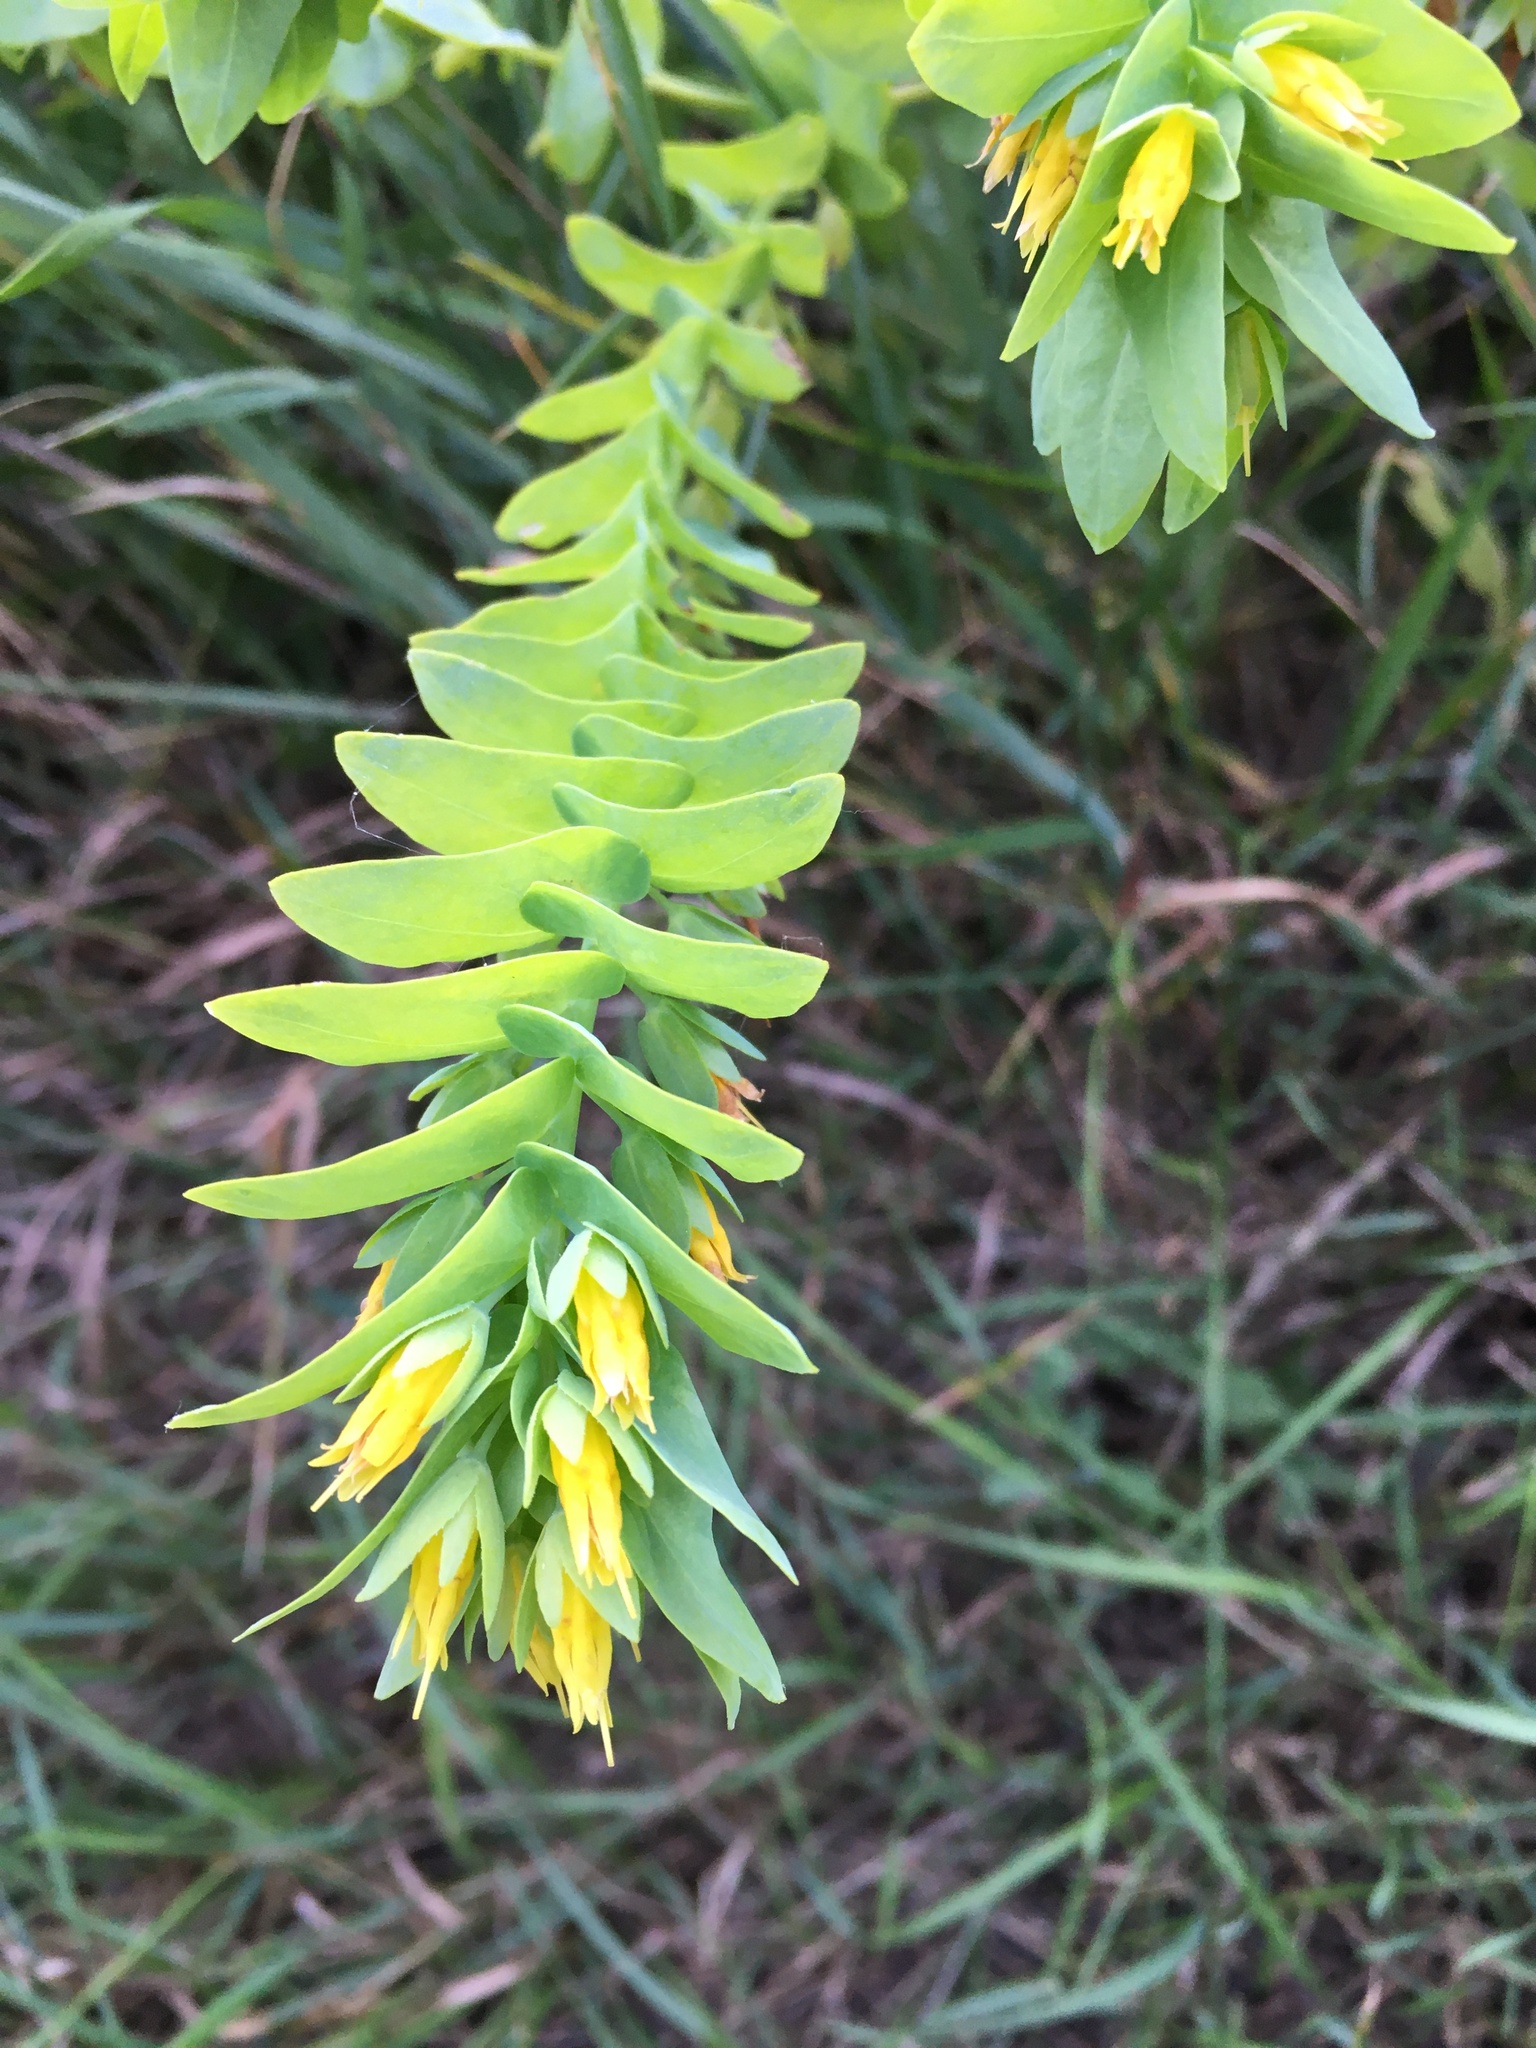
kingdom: Plantae
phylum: Tracheophyta
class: Magnoliopsida
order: Boraginales
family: Boraginaceae
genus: Cerinthe
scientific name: Cerinthe minor
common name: Lesser honeywort
